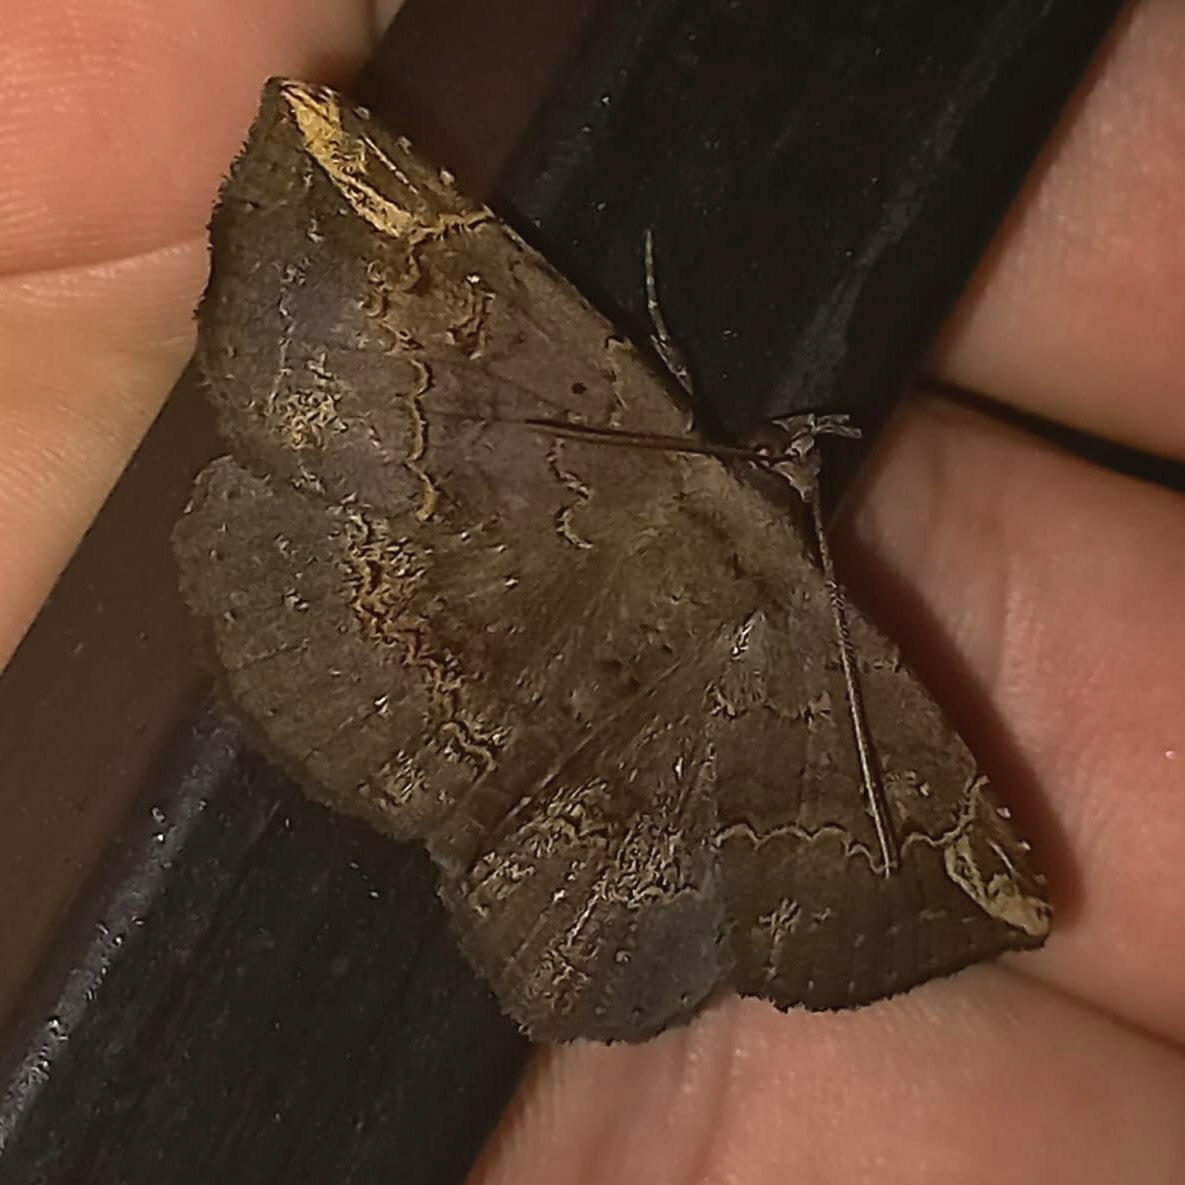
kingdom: Animalia
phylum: Arthropoda
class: Insecta
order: Lepidoptera
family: Erebidae
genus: Phaeoblemma
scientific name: Phaeoblemma dares
